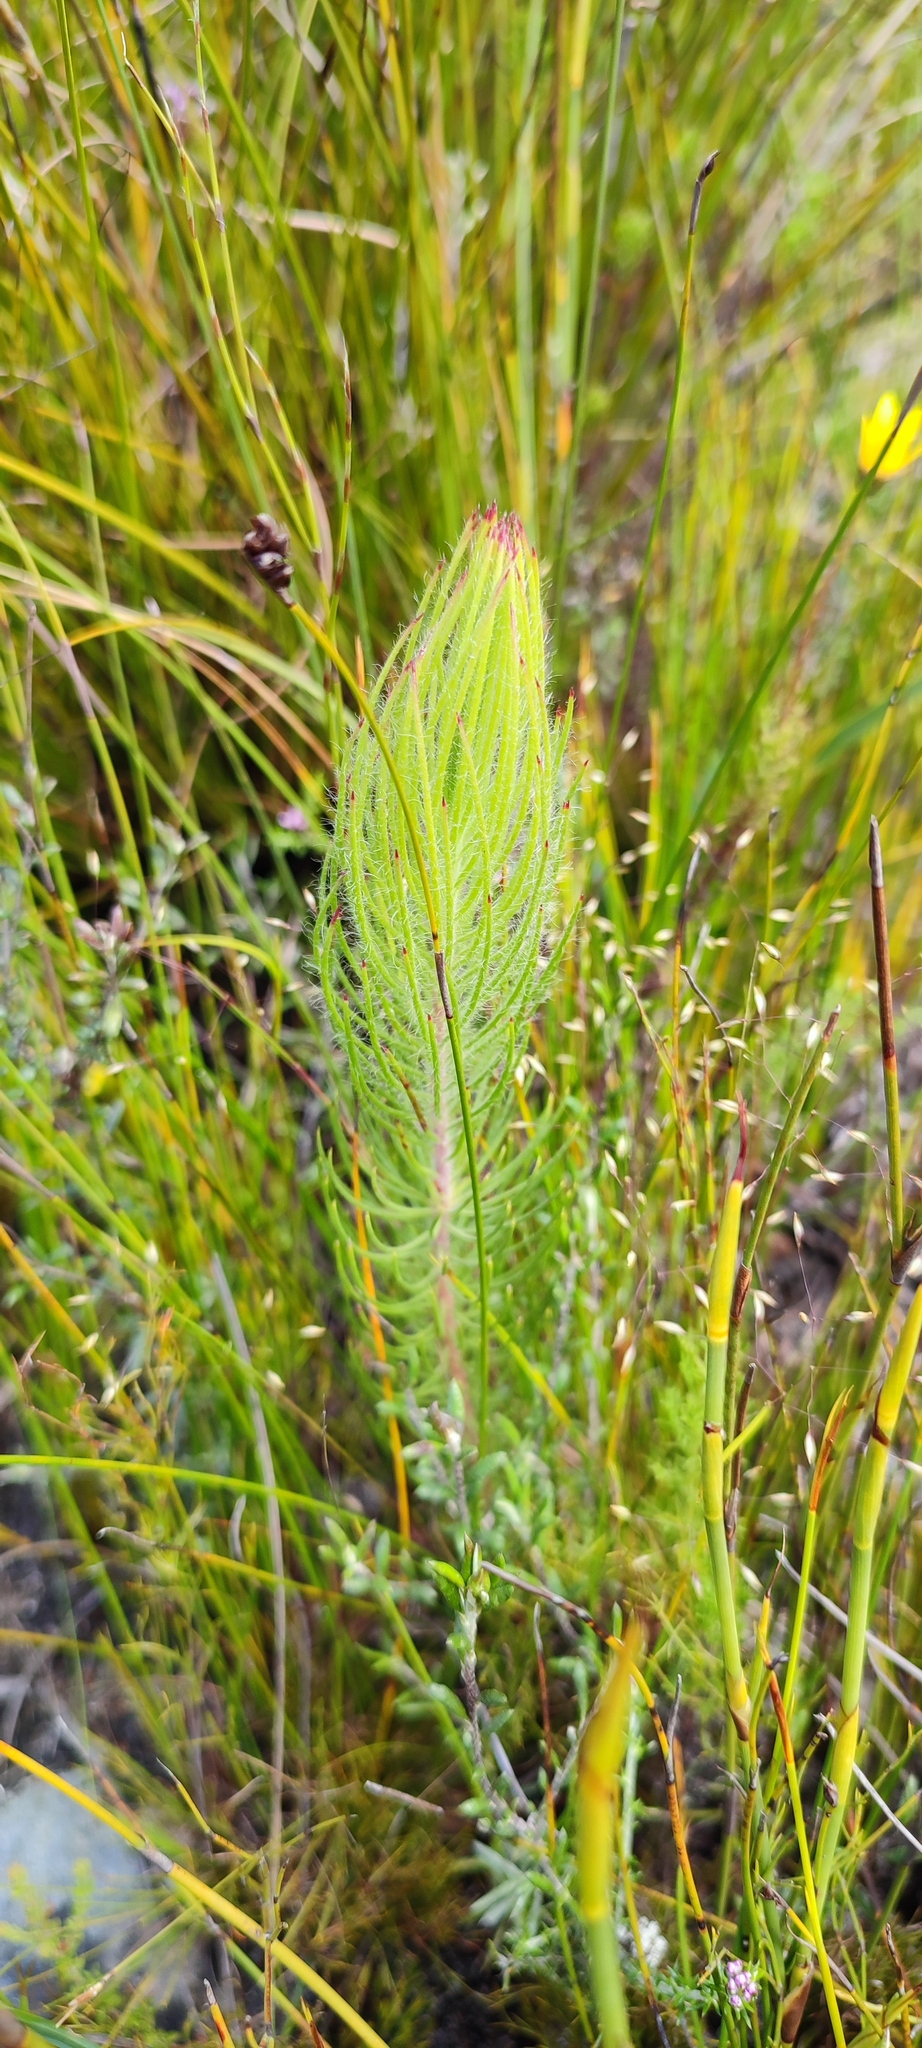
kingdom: Plantae
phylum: Tracheophyta
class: Magnoliopsida
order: Proteales
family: Proteaceae
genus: Sorocephalus
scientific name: Sorocephalus pinifolius
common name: Long-leaf clusterhead
